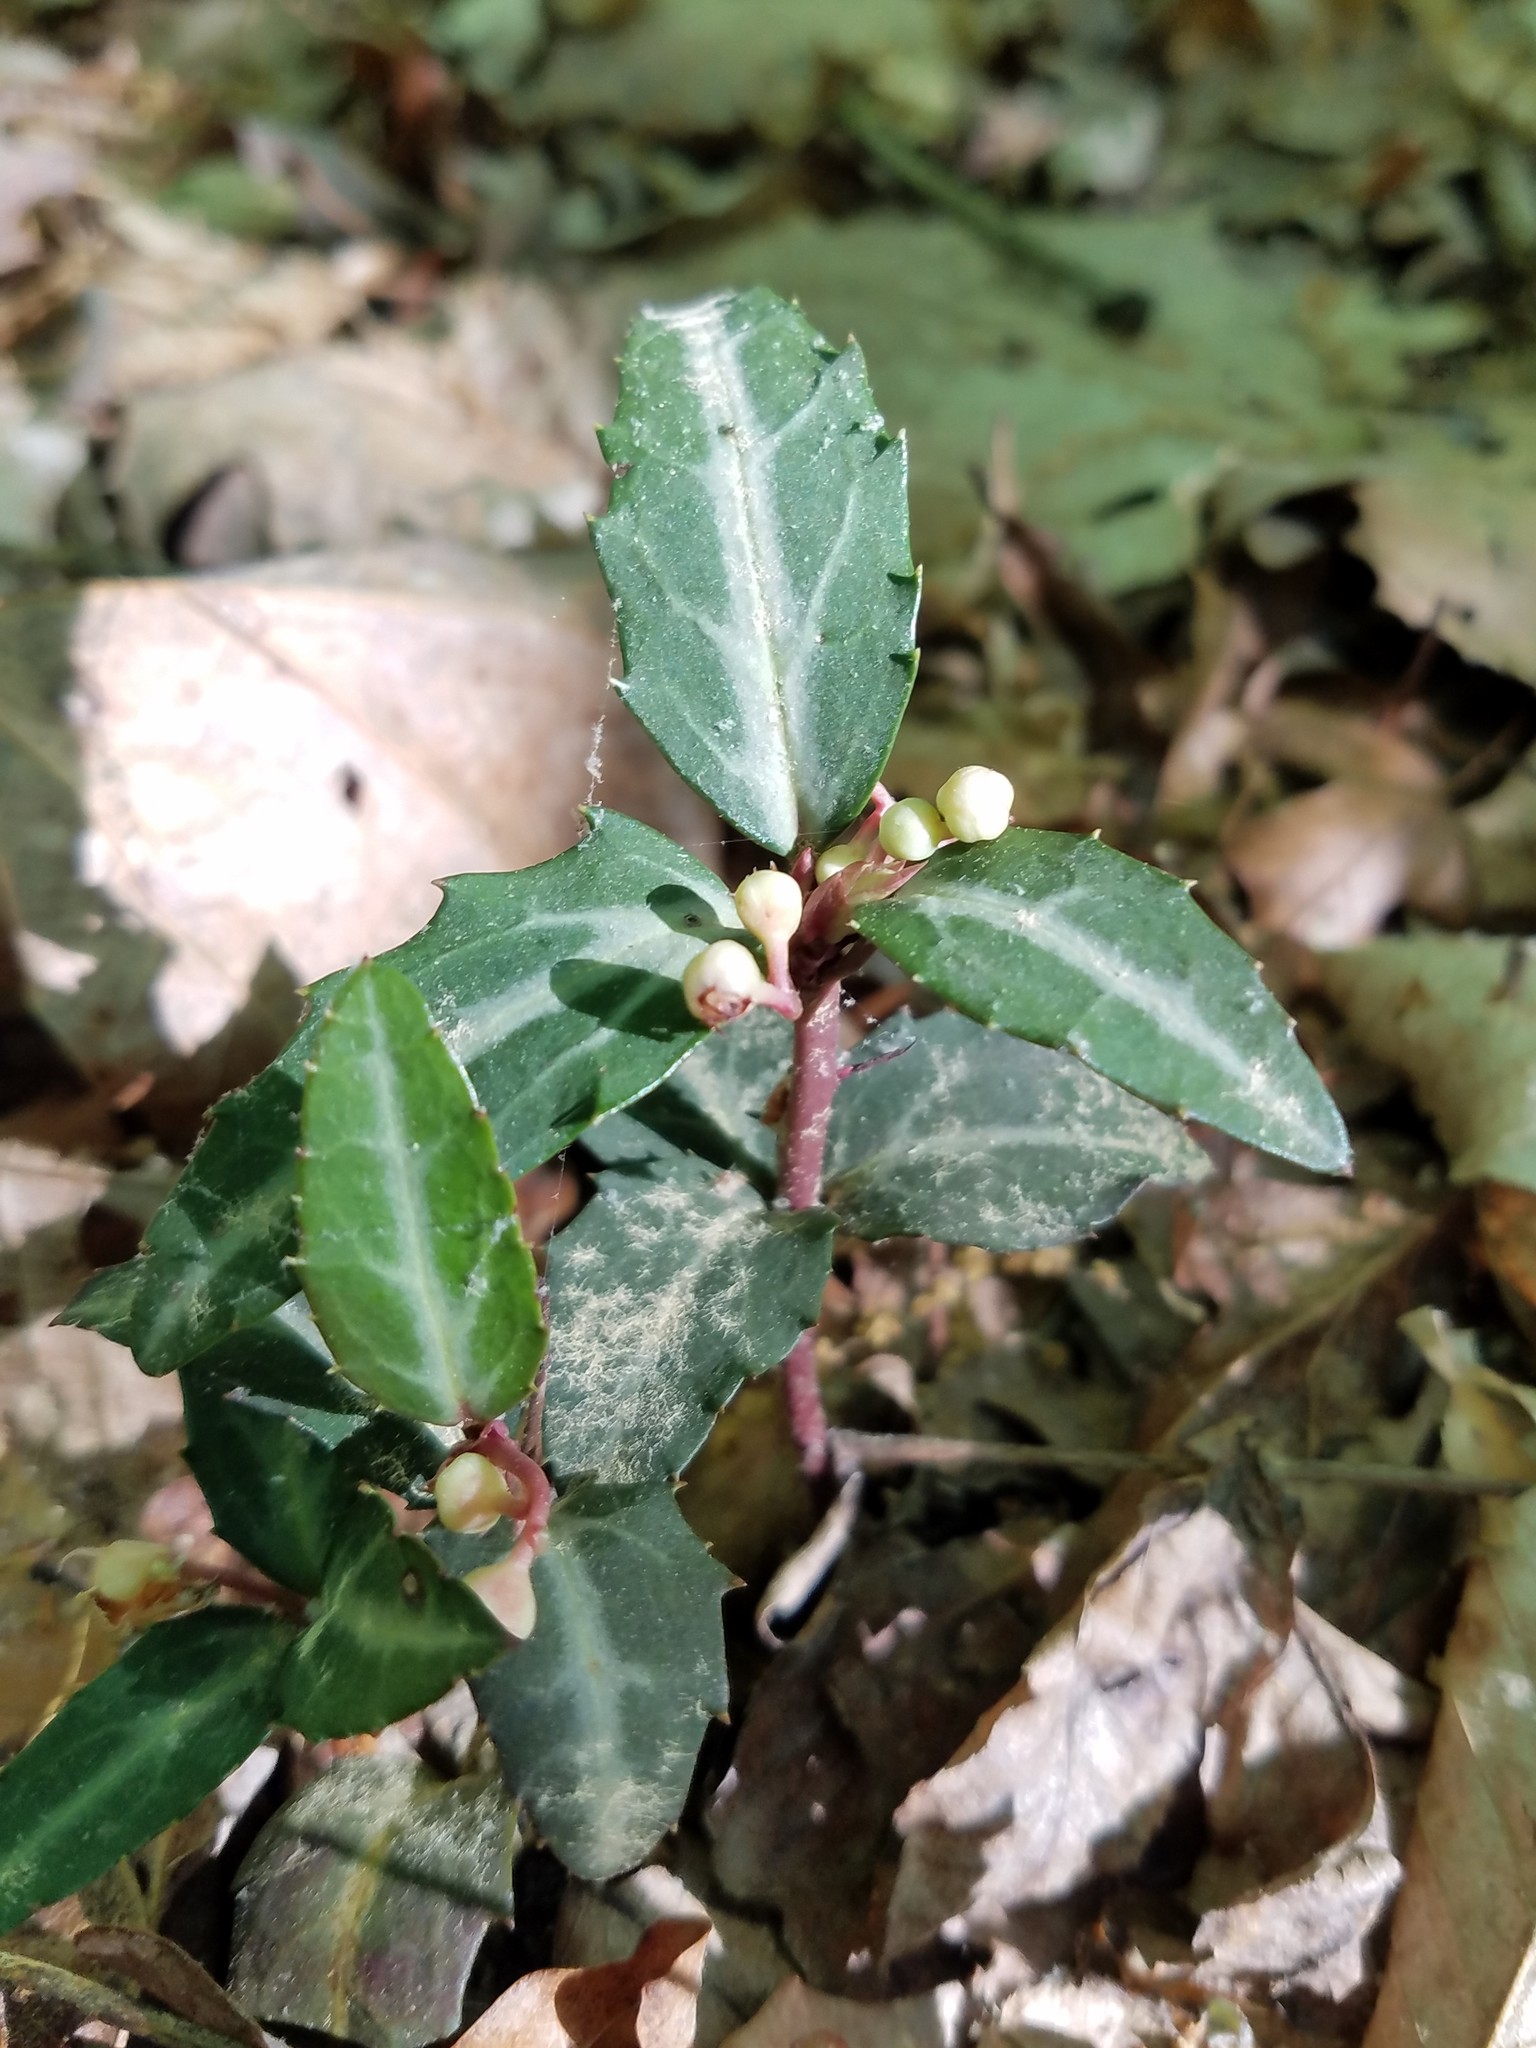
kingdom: Plantae
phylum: Tracheophyta
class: Magnoliopsida
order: Ericales
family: Ericaceae
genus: Chimaphila
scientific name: Chimaphila maculata
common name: Spotted pipsissewa
